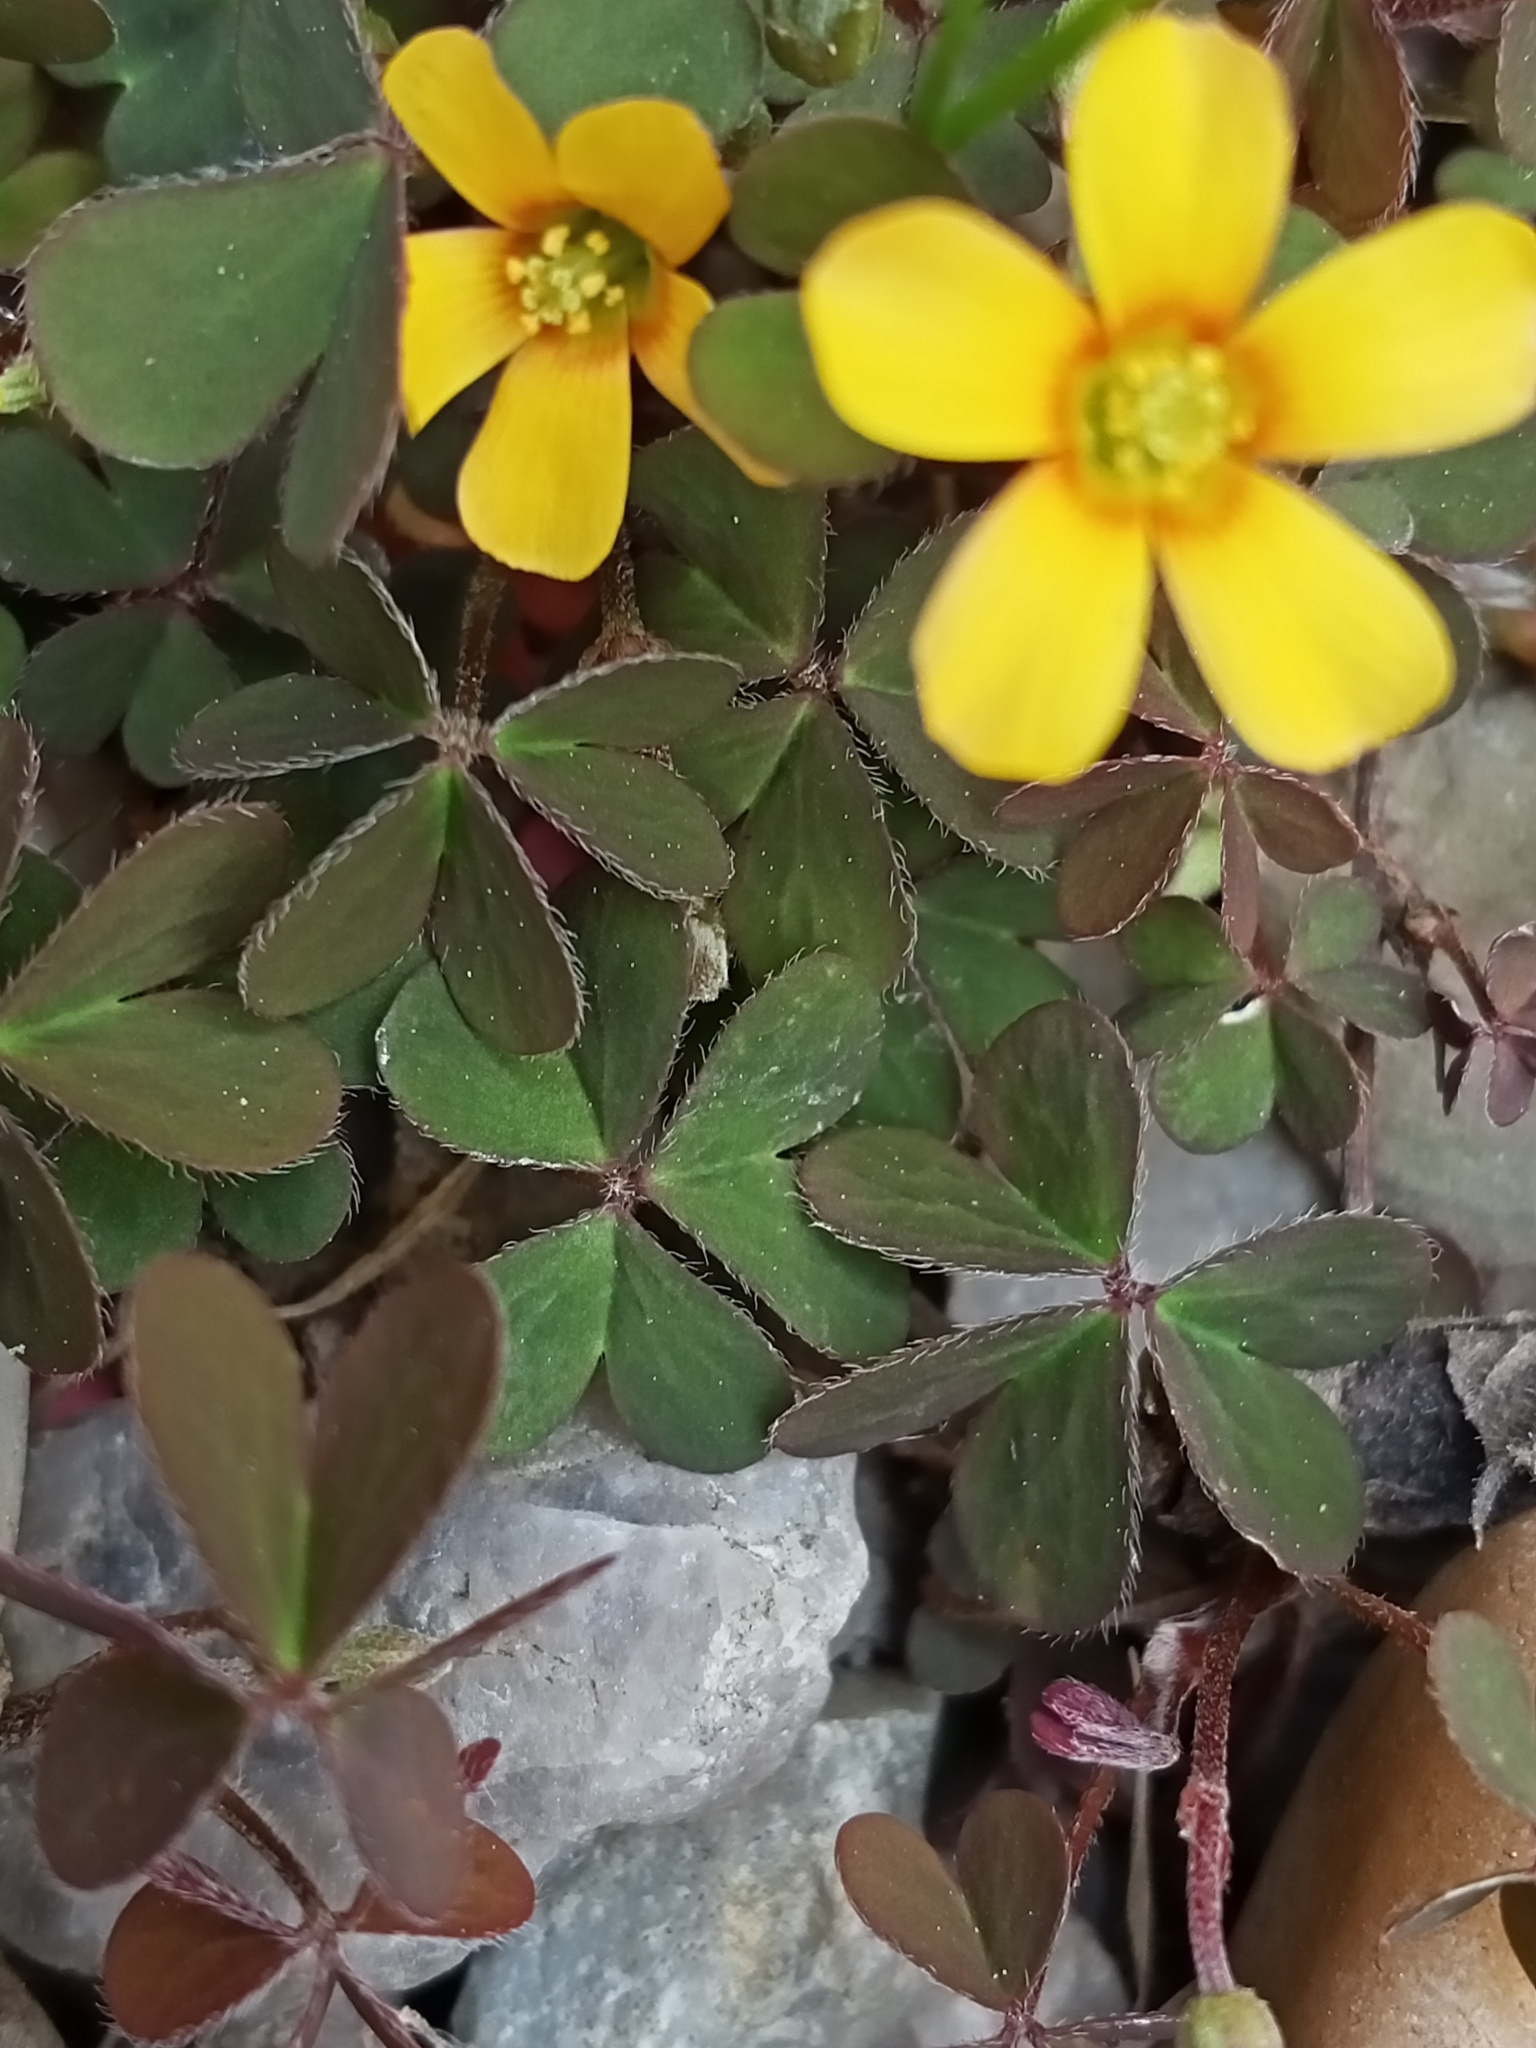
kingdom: Plantae
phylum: Tracheophyta
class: Magnoliopsida
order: Oxalidales
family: Oxalidaceae
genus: Oxalis
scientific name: Oxalis corniculata
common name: Procumbent yellow-sorrel
